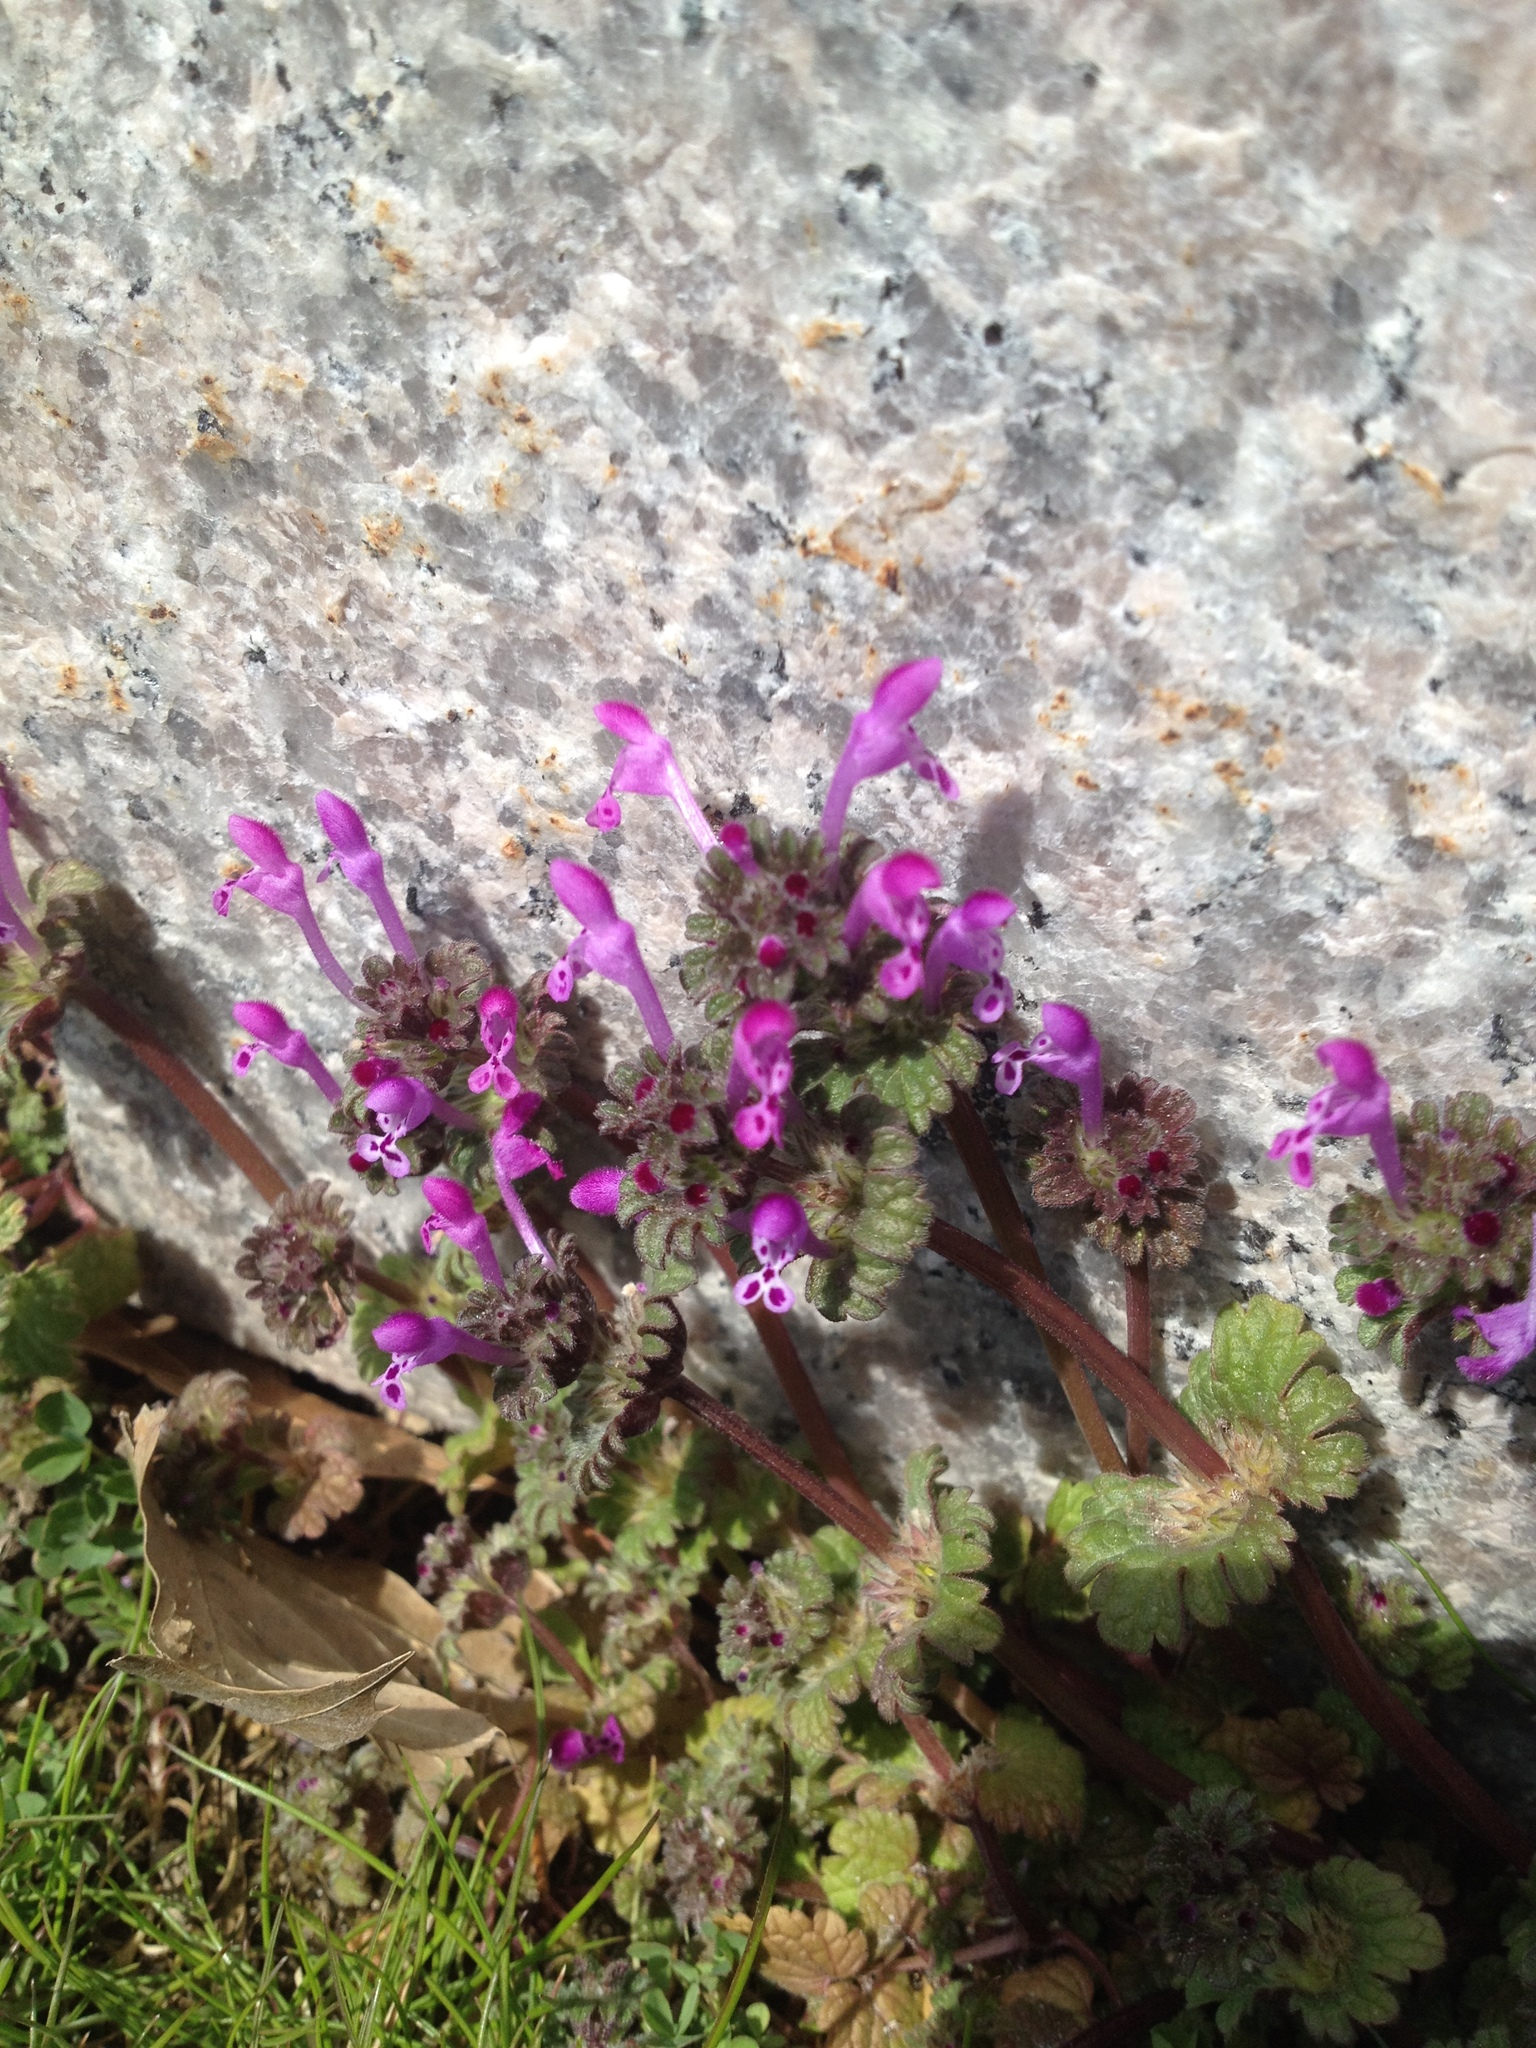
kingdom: Plantae
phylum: Tracheophyta
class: Magnoliopsida
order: Lamiales
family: Lamiaceae
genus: Lamium
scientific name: Lamium amplexicaule
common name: Henbit dead-nettle
